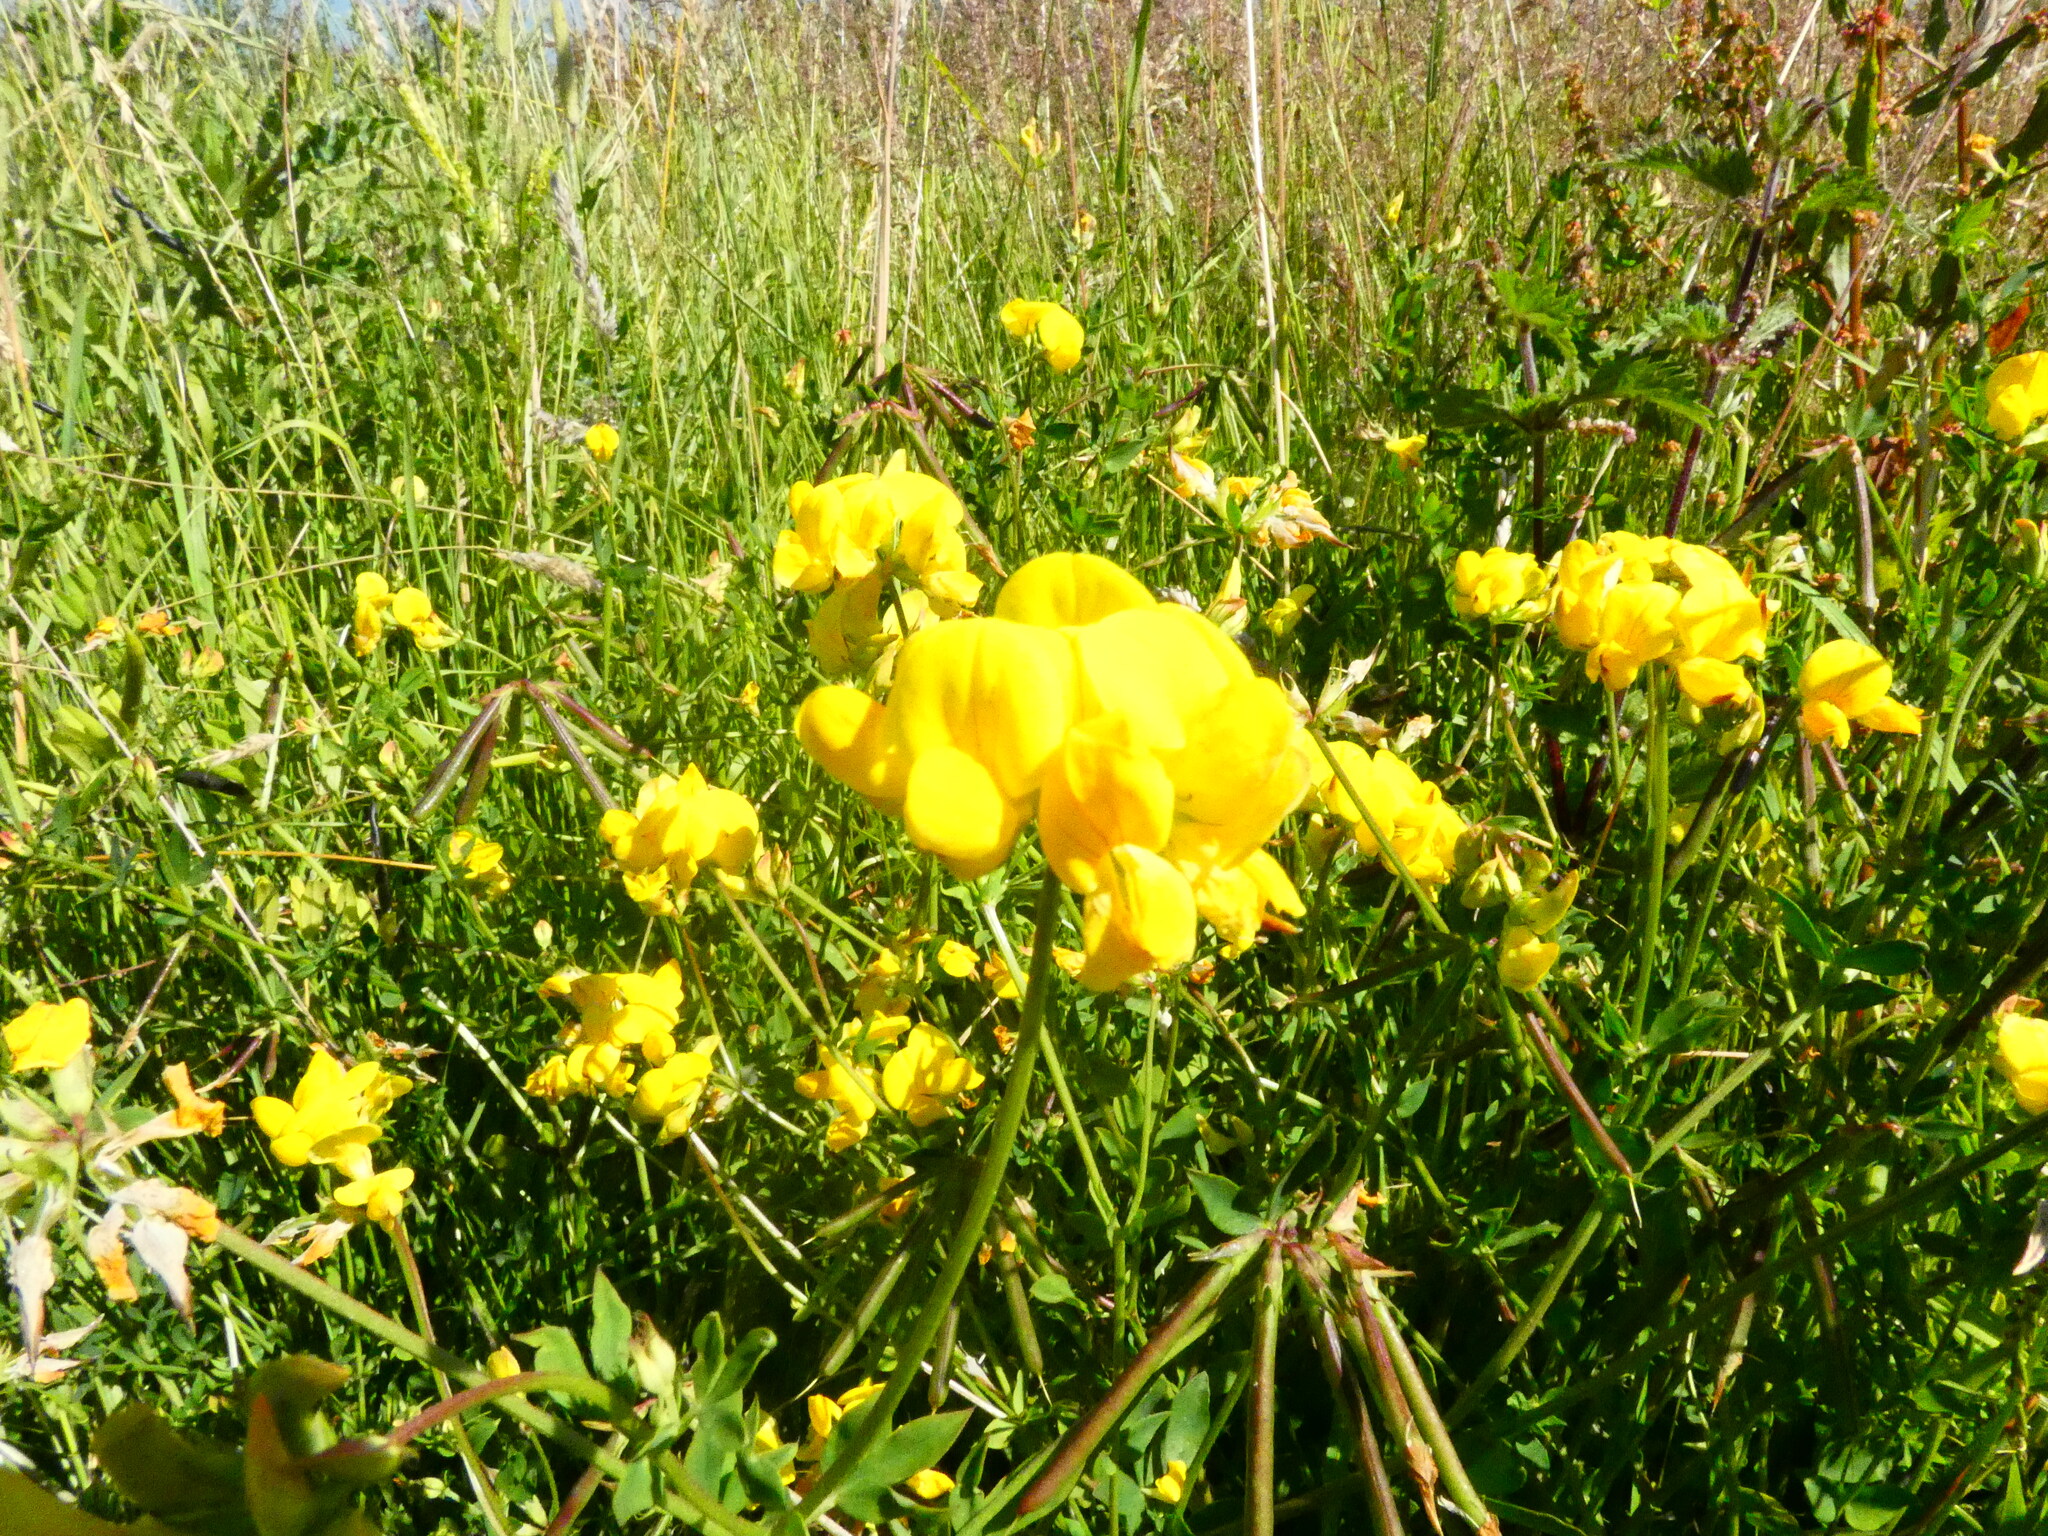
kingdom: Plantae
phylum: Tracheophyta
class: Magnoliopsida
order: Fabales
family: Fabaceae
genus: Lotus
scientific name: Lotus corniculatus
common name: Common bird's-foot-trefoil
